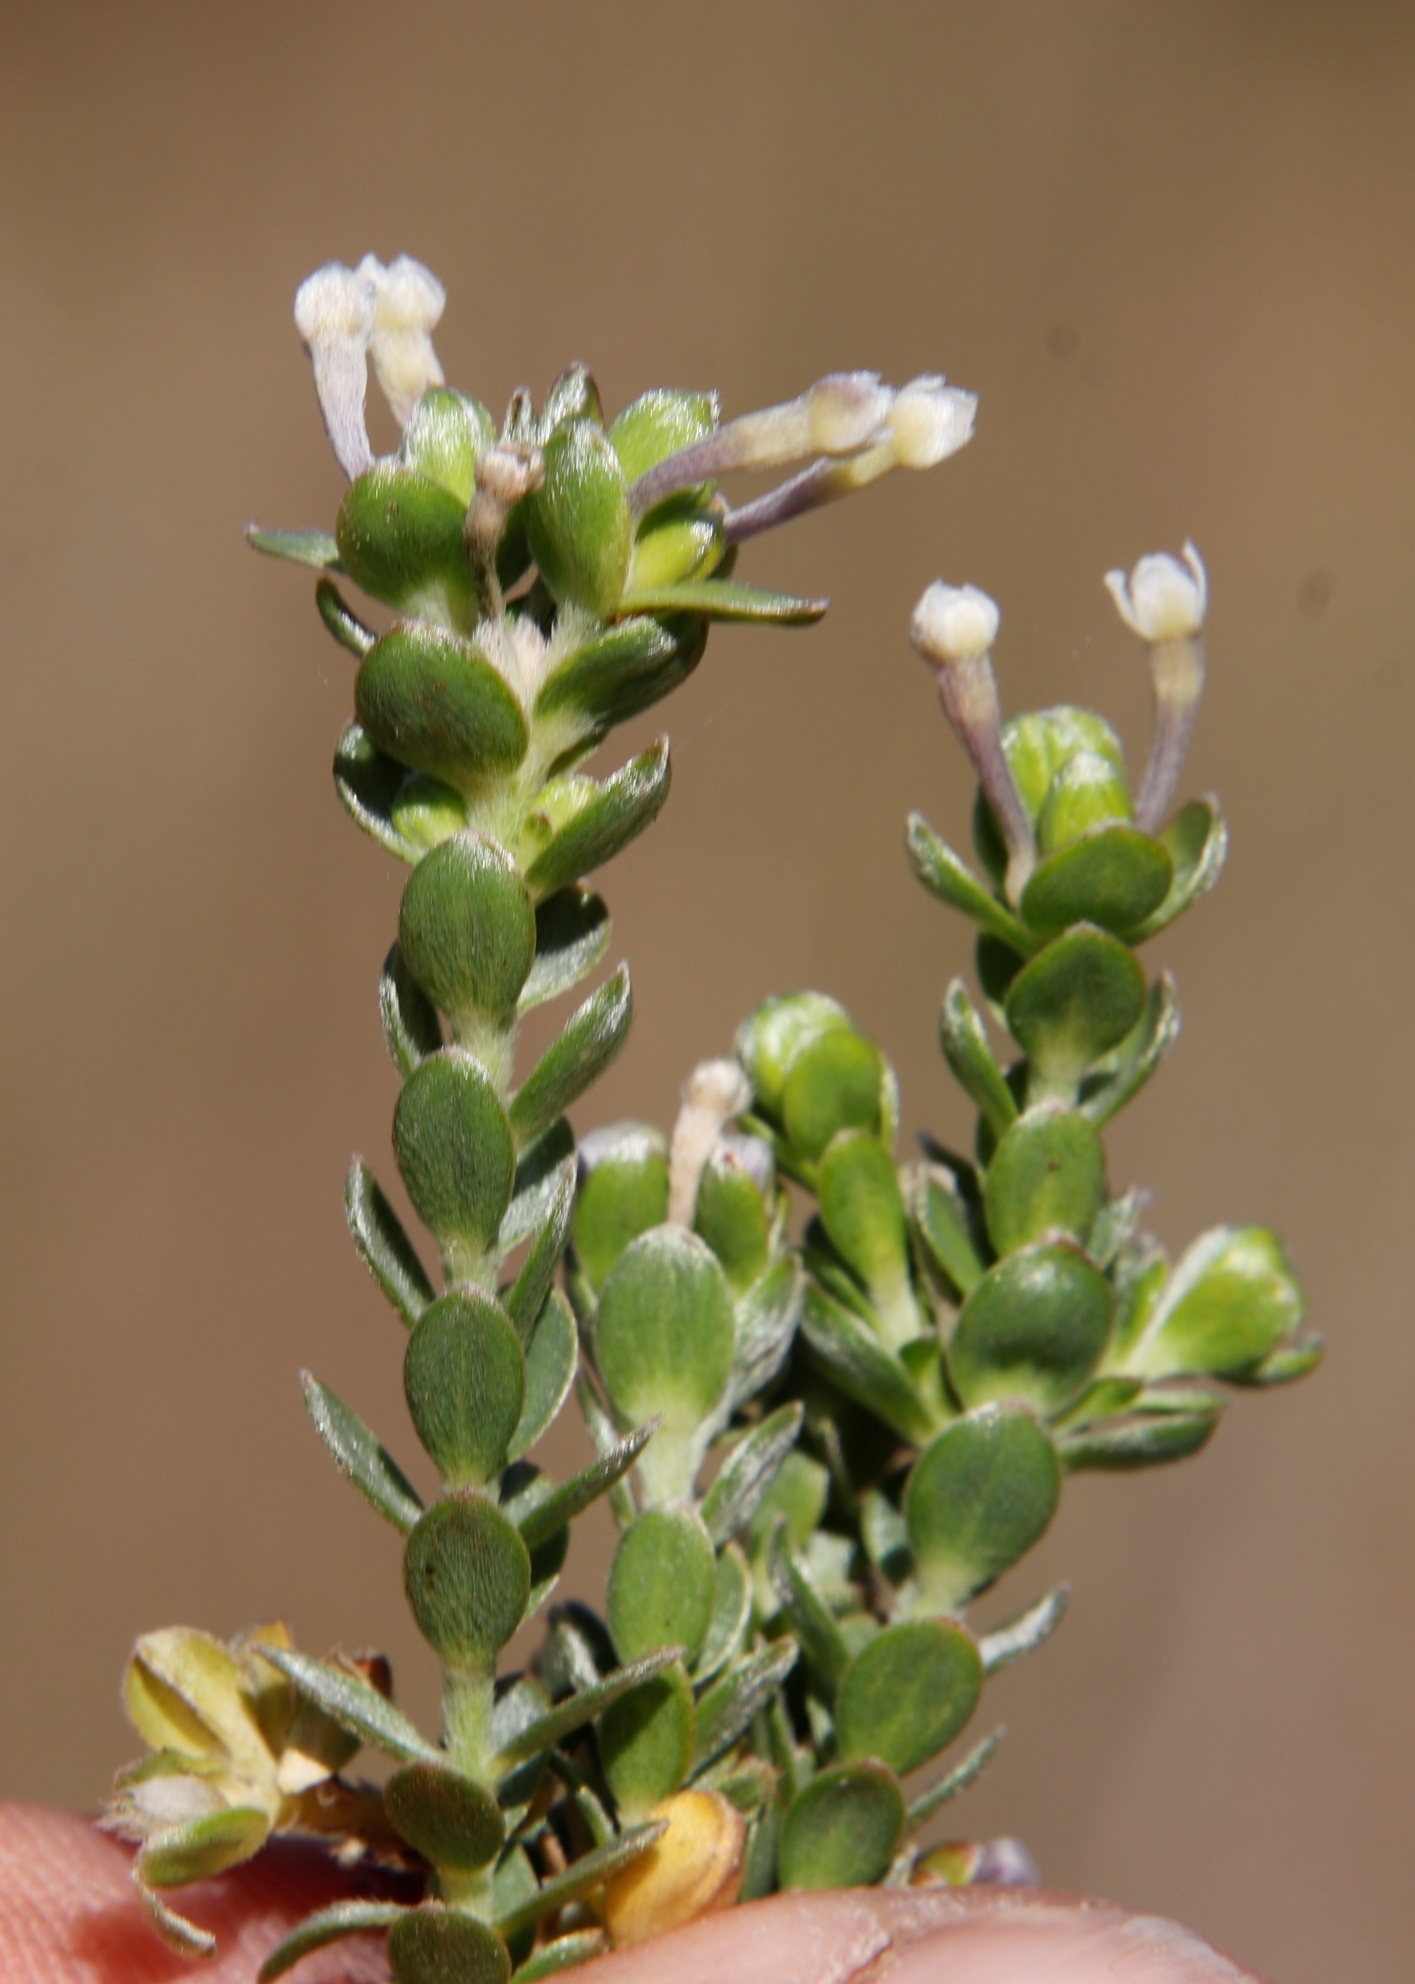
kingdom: Plantae
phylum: Tracheophyta
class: Magnoliopsida
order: Malvales
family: Thymelaeaceae
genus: Gnidia
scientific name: Gnidia sericea
